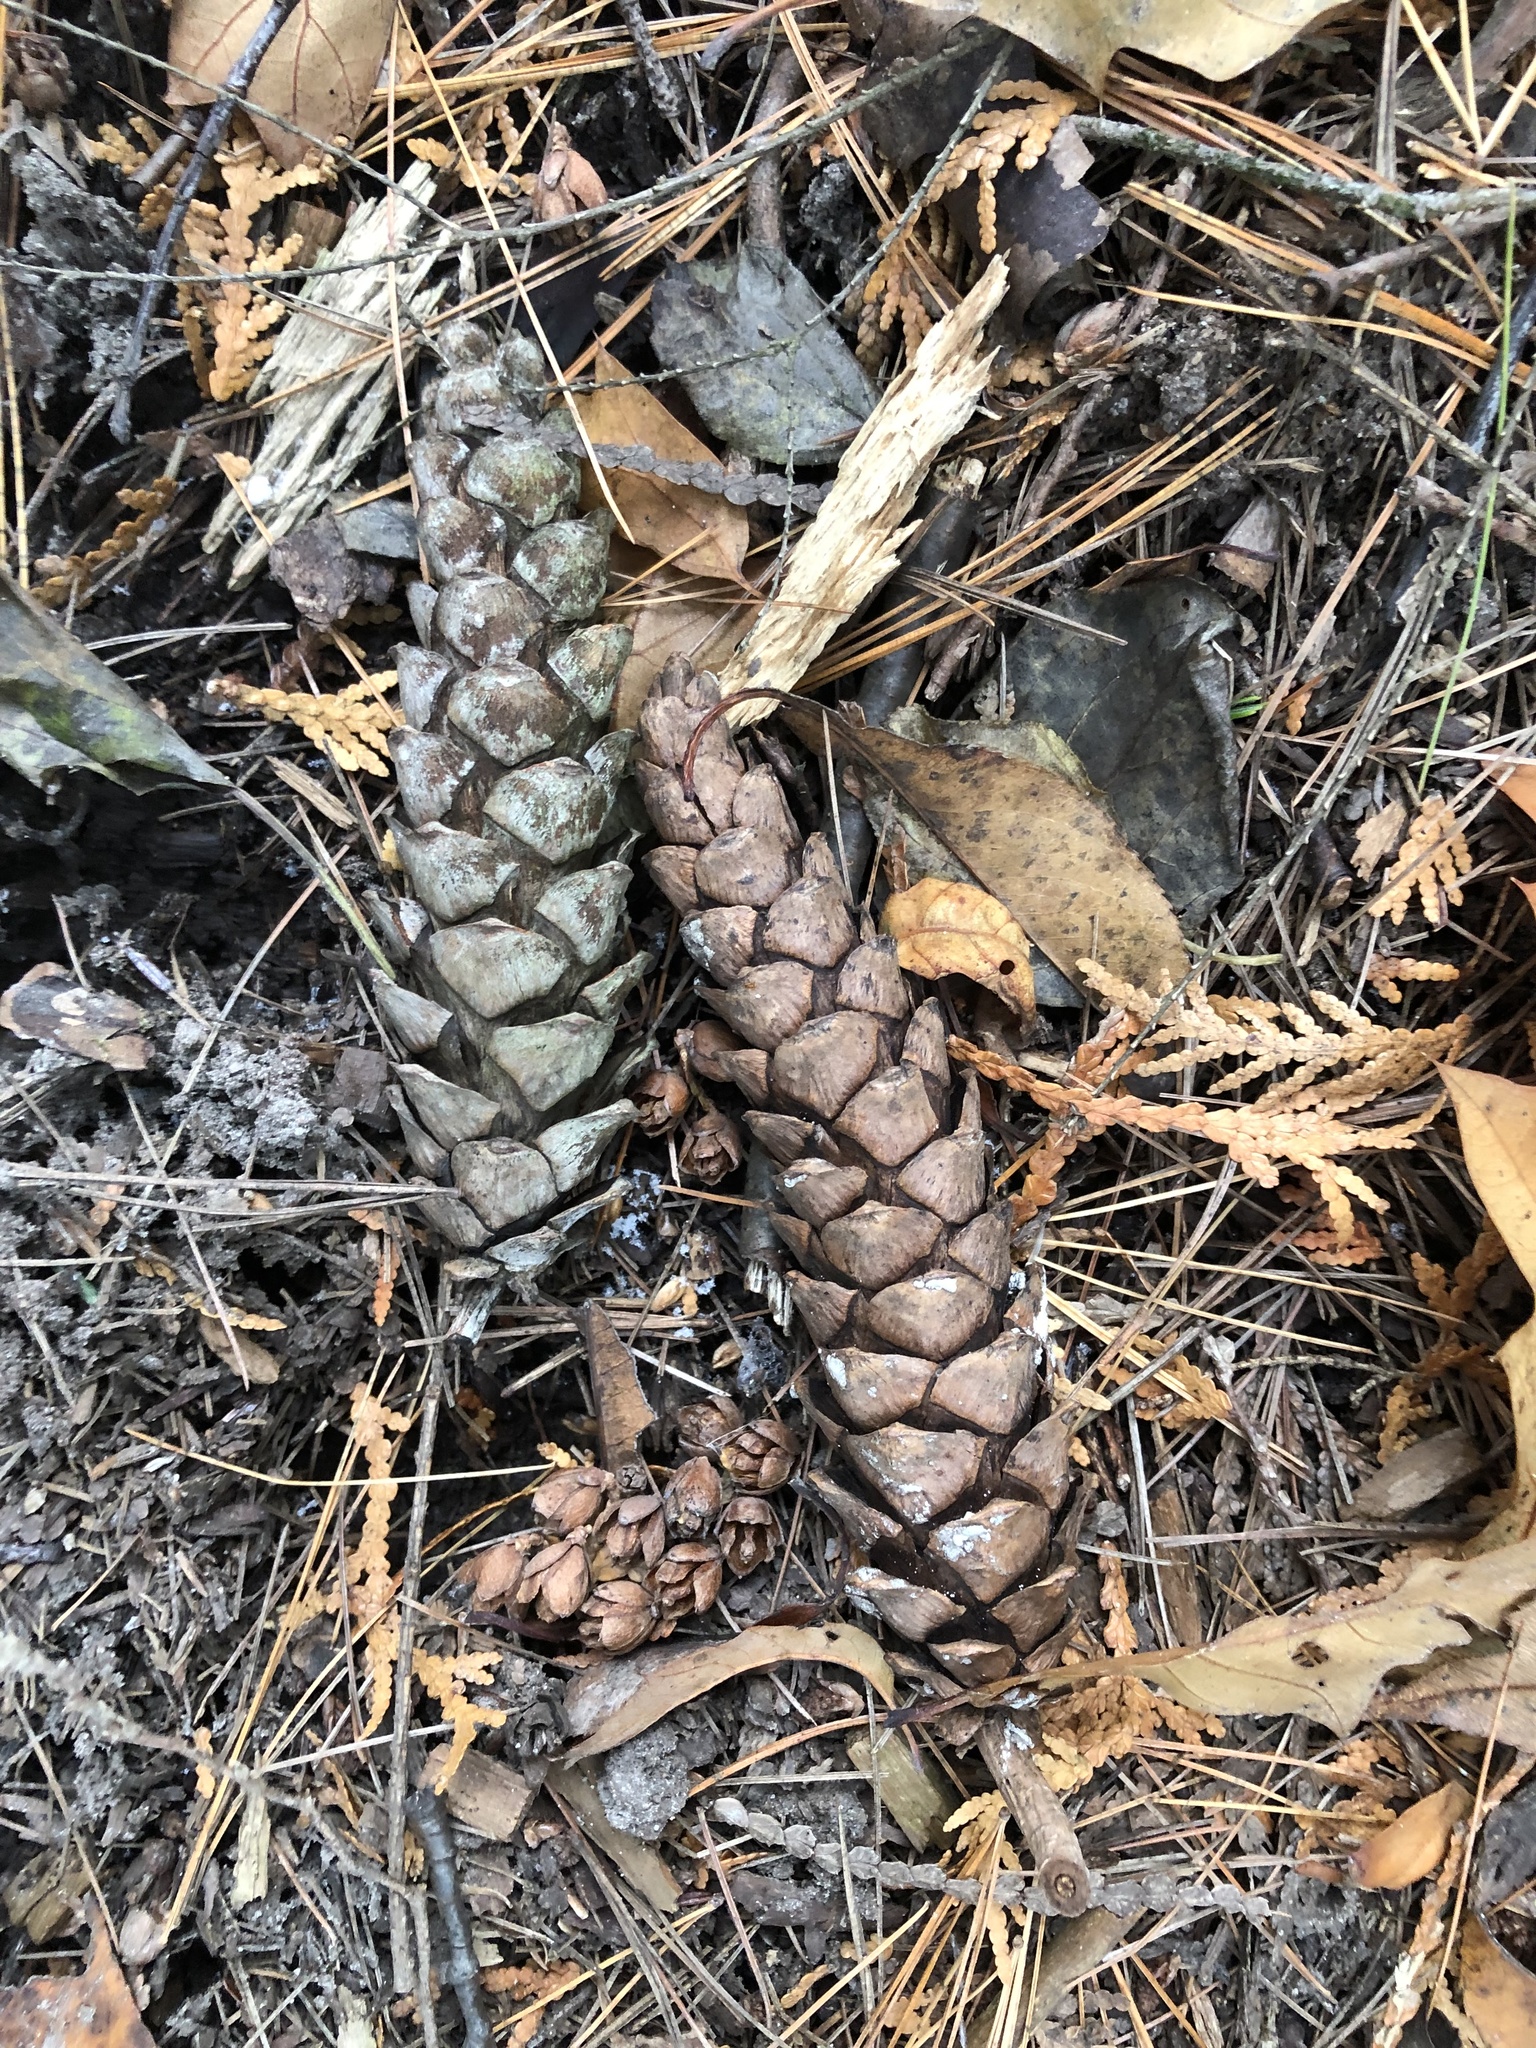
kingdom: Plantae
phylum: Tracheophyta
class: Pinopsida
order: Pinales
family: Pinaceae
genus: Pinus
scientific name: Pinus strobus
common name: Weymouth pine
